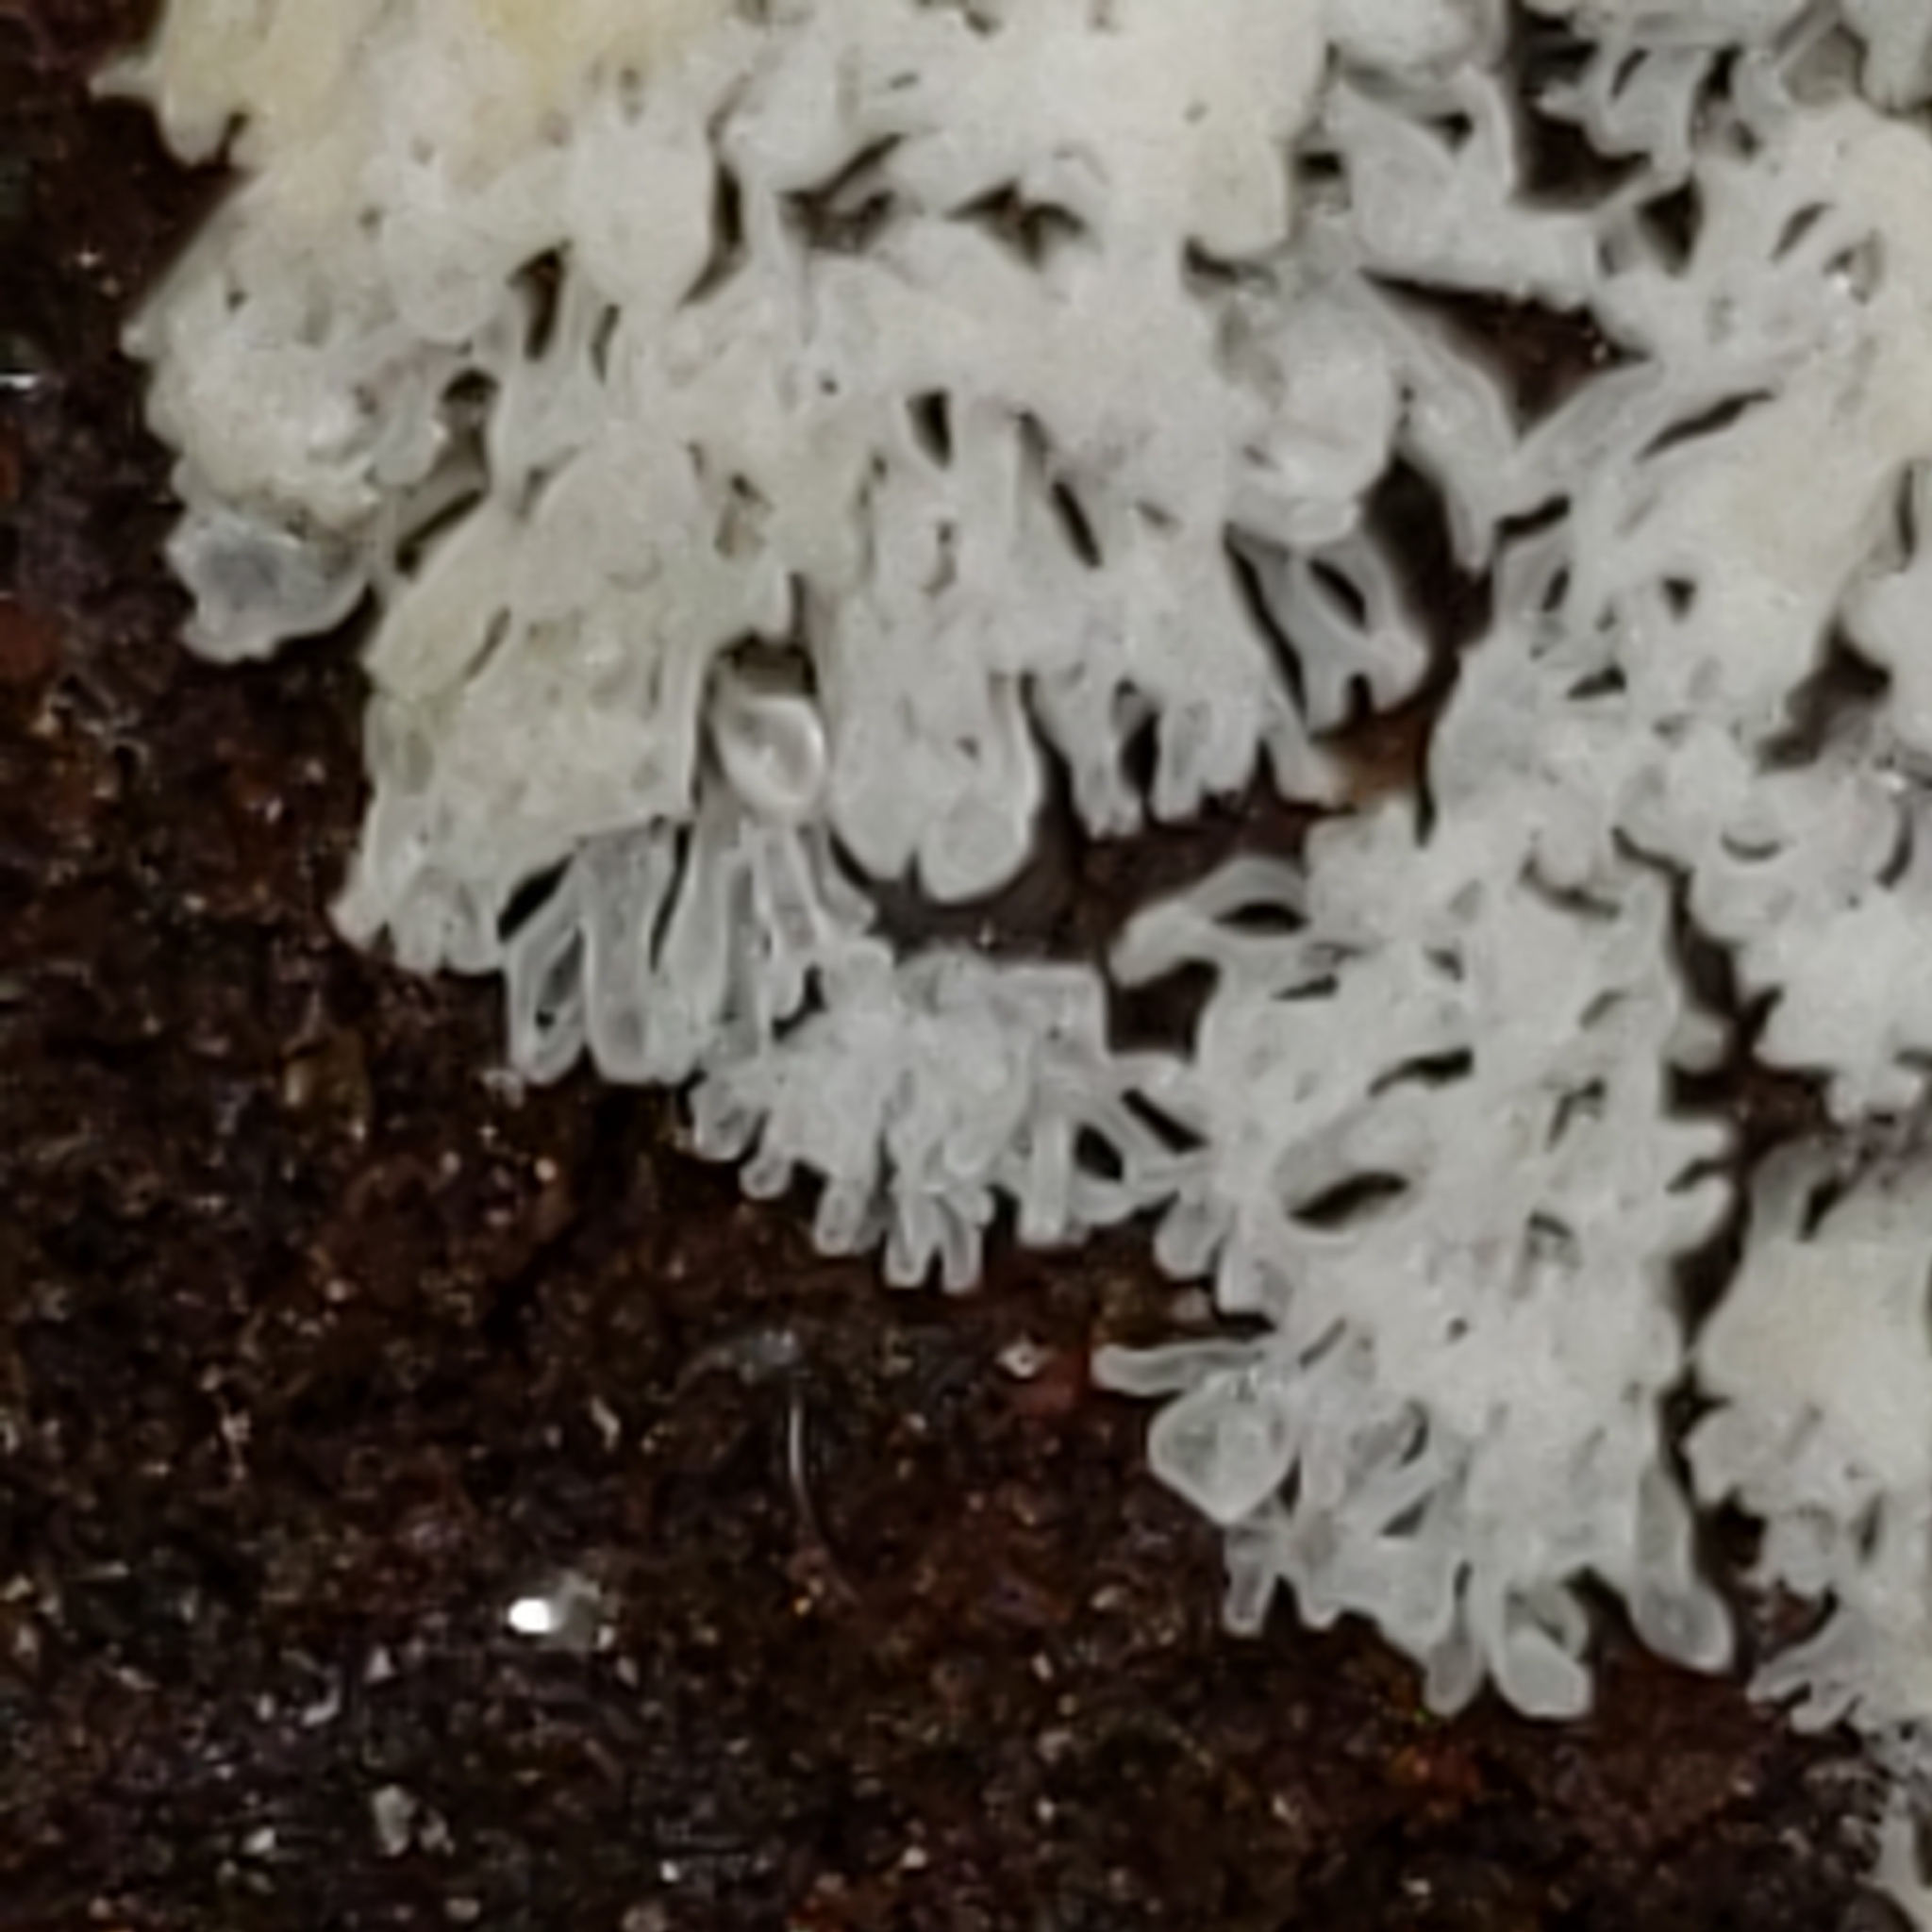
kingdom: Protozoa
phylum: Mycetozoa
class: Protosteliomycetes
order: Ceratiomyxales
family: Ceratiomyxaceae
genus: Ceratiomyxa
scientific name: Ceratiomyxa fruticulosa
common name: Honeycomb coral slime mold
